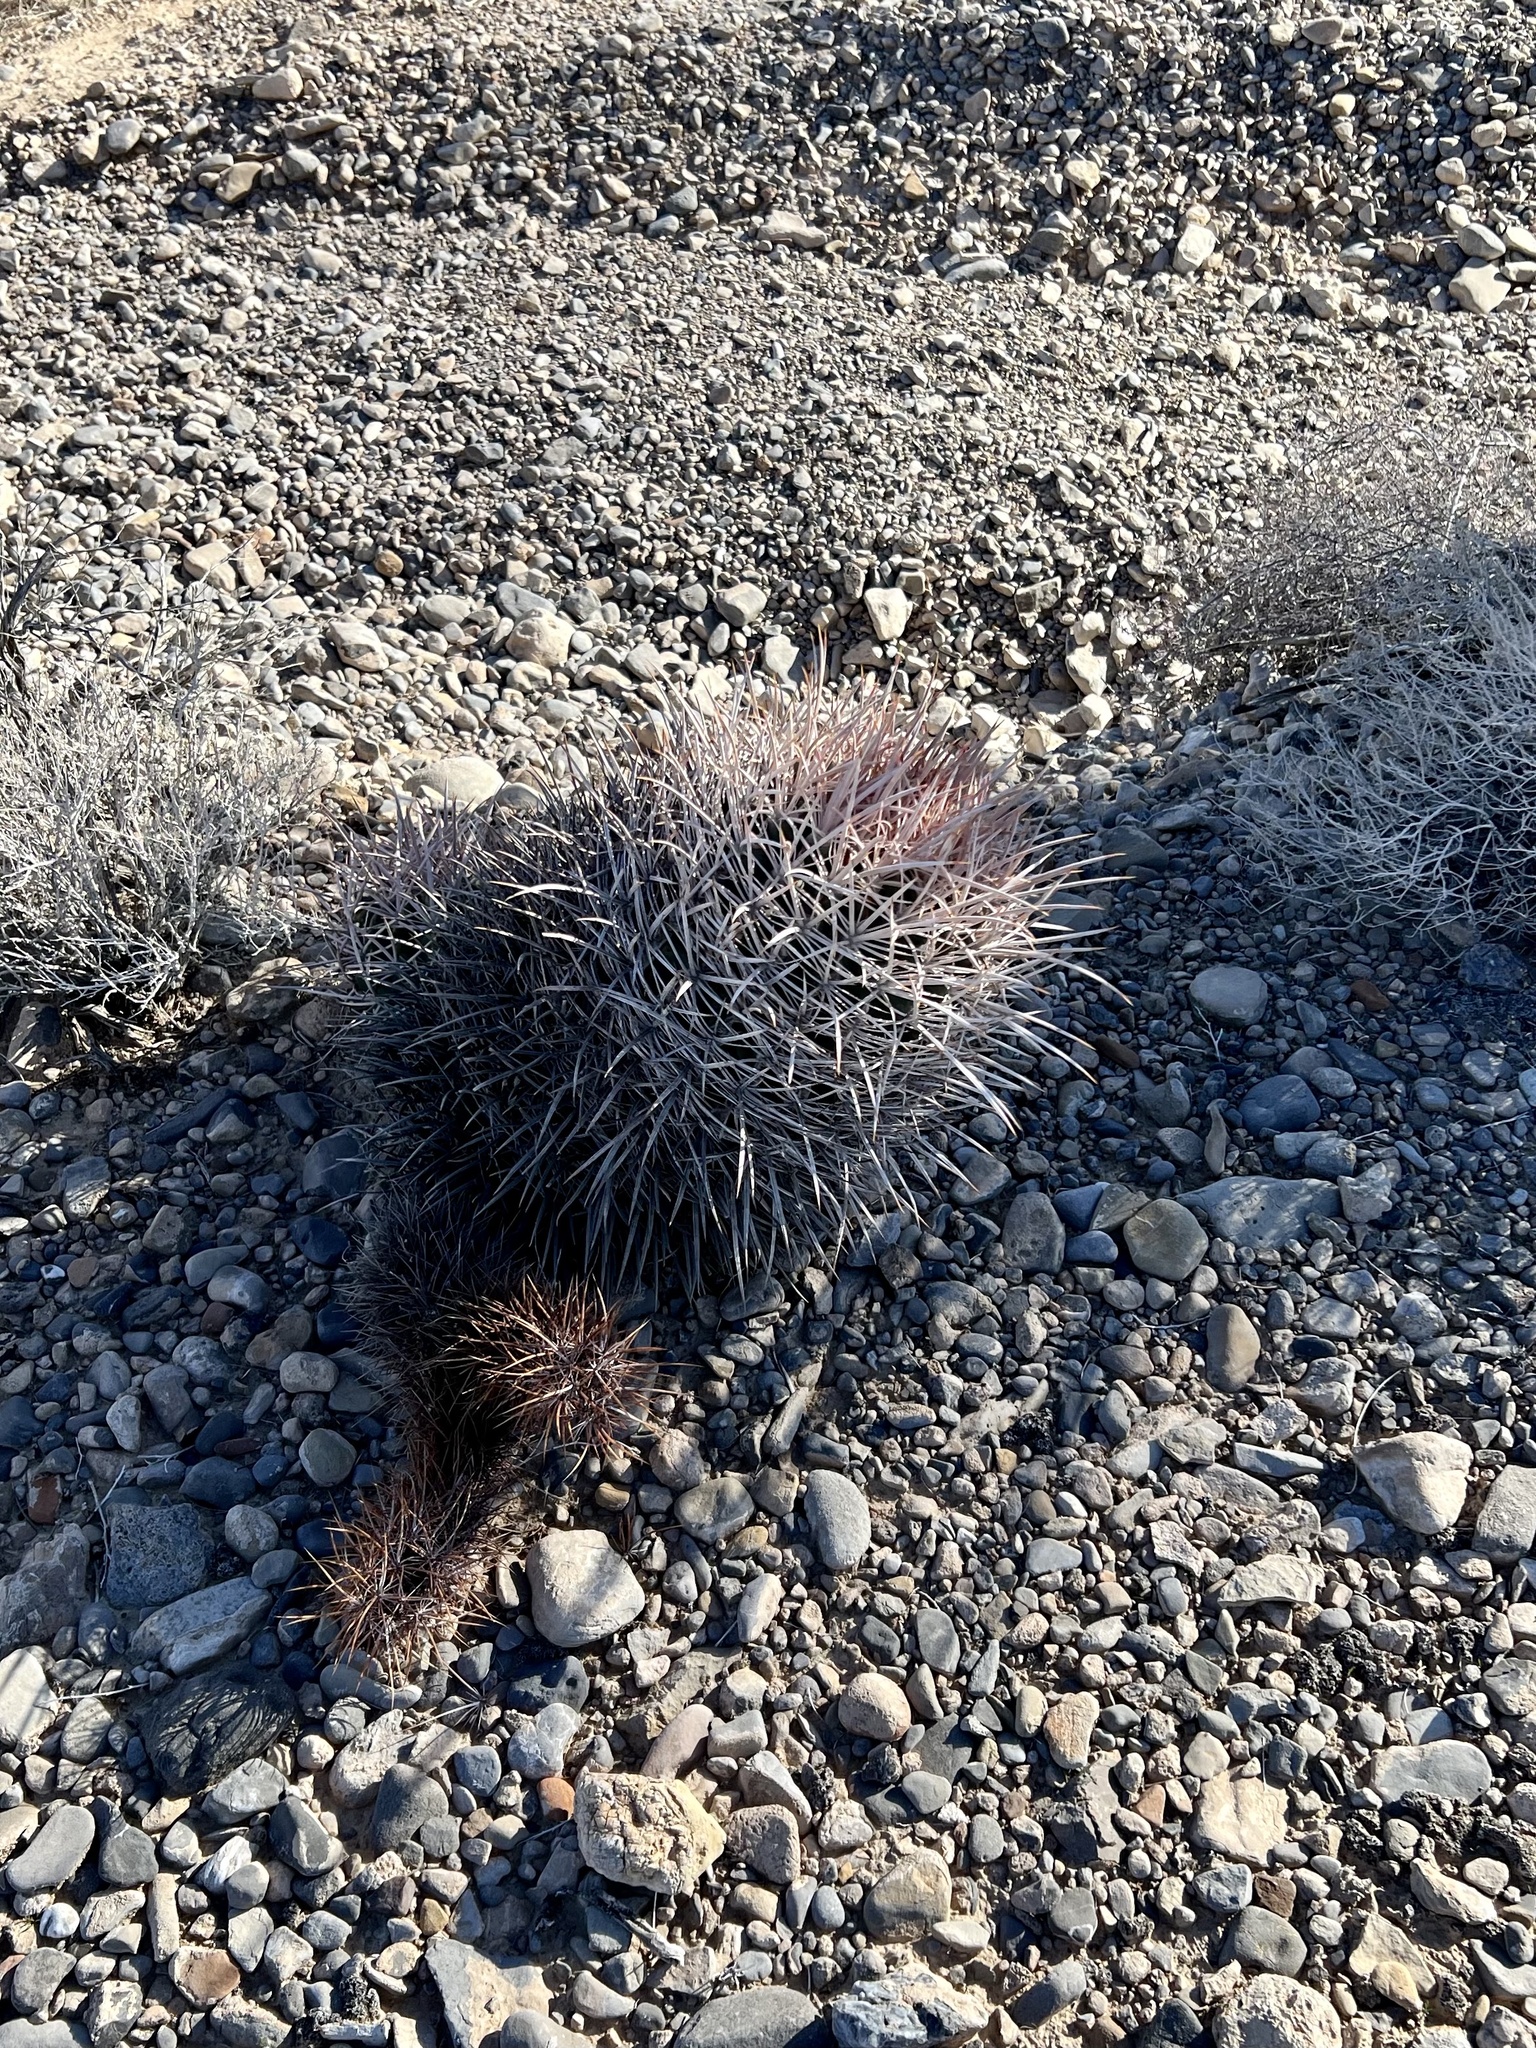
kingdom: Plantae
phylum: Tracheophyta
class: Magnoliopsida
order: Caryophyllales
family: Cactaceae
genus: Echinocactus
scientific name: Echinocactus polycephalus
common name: Cottontop cactus
